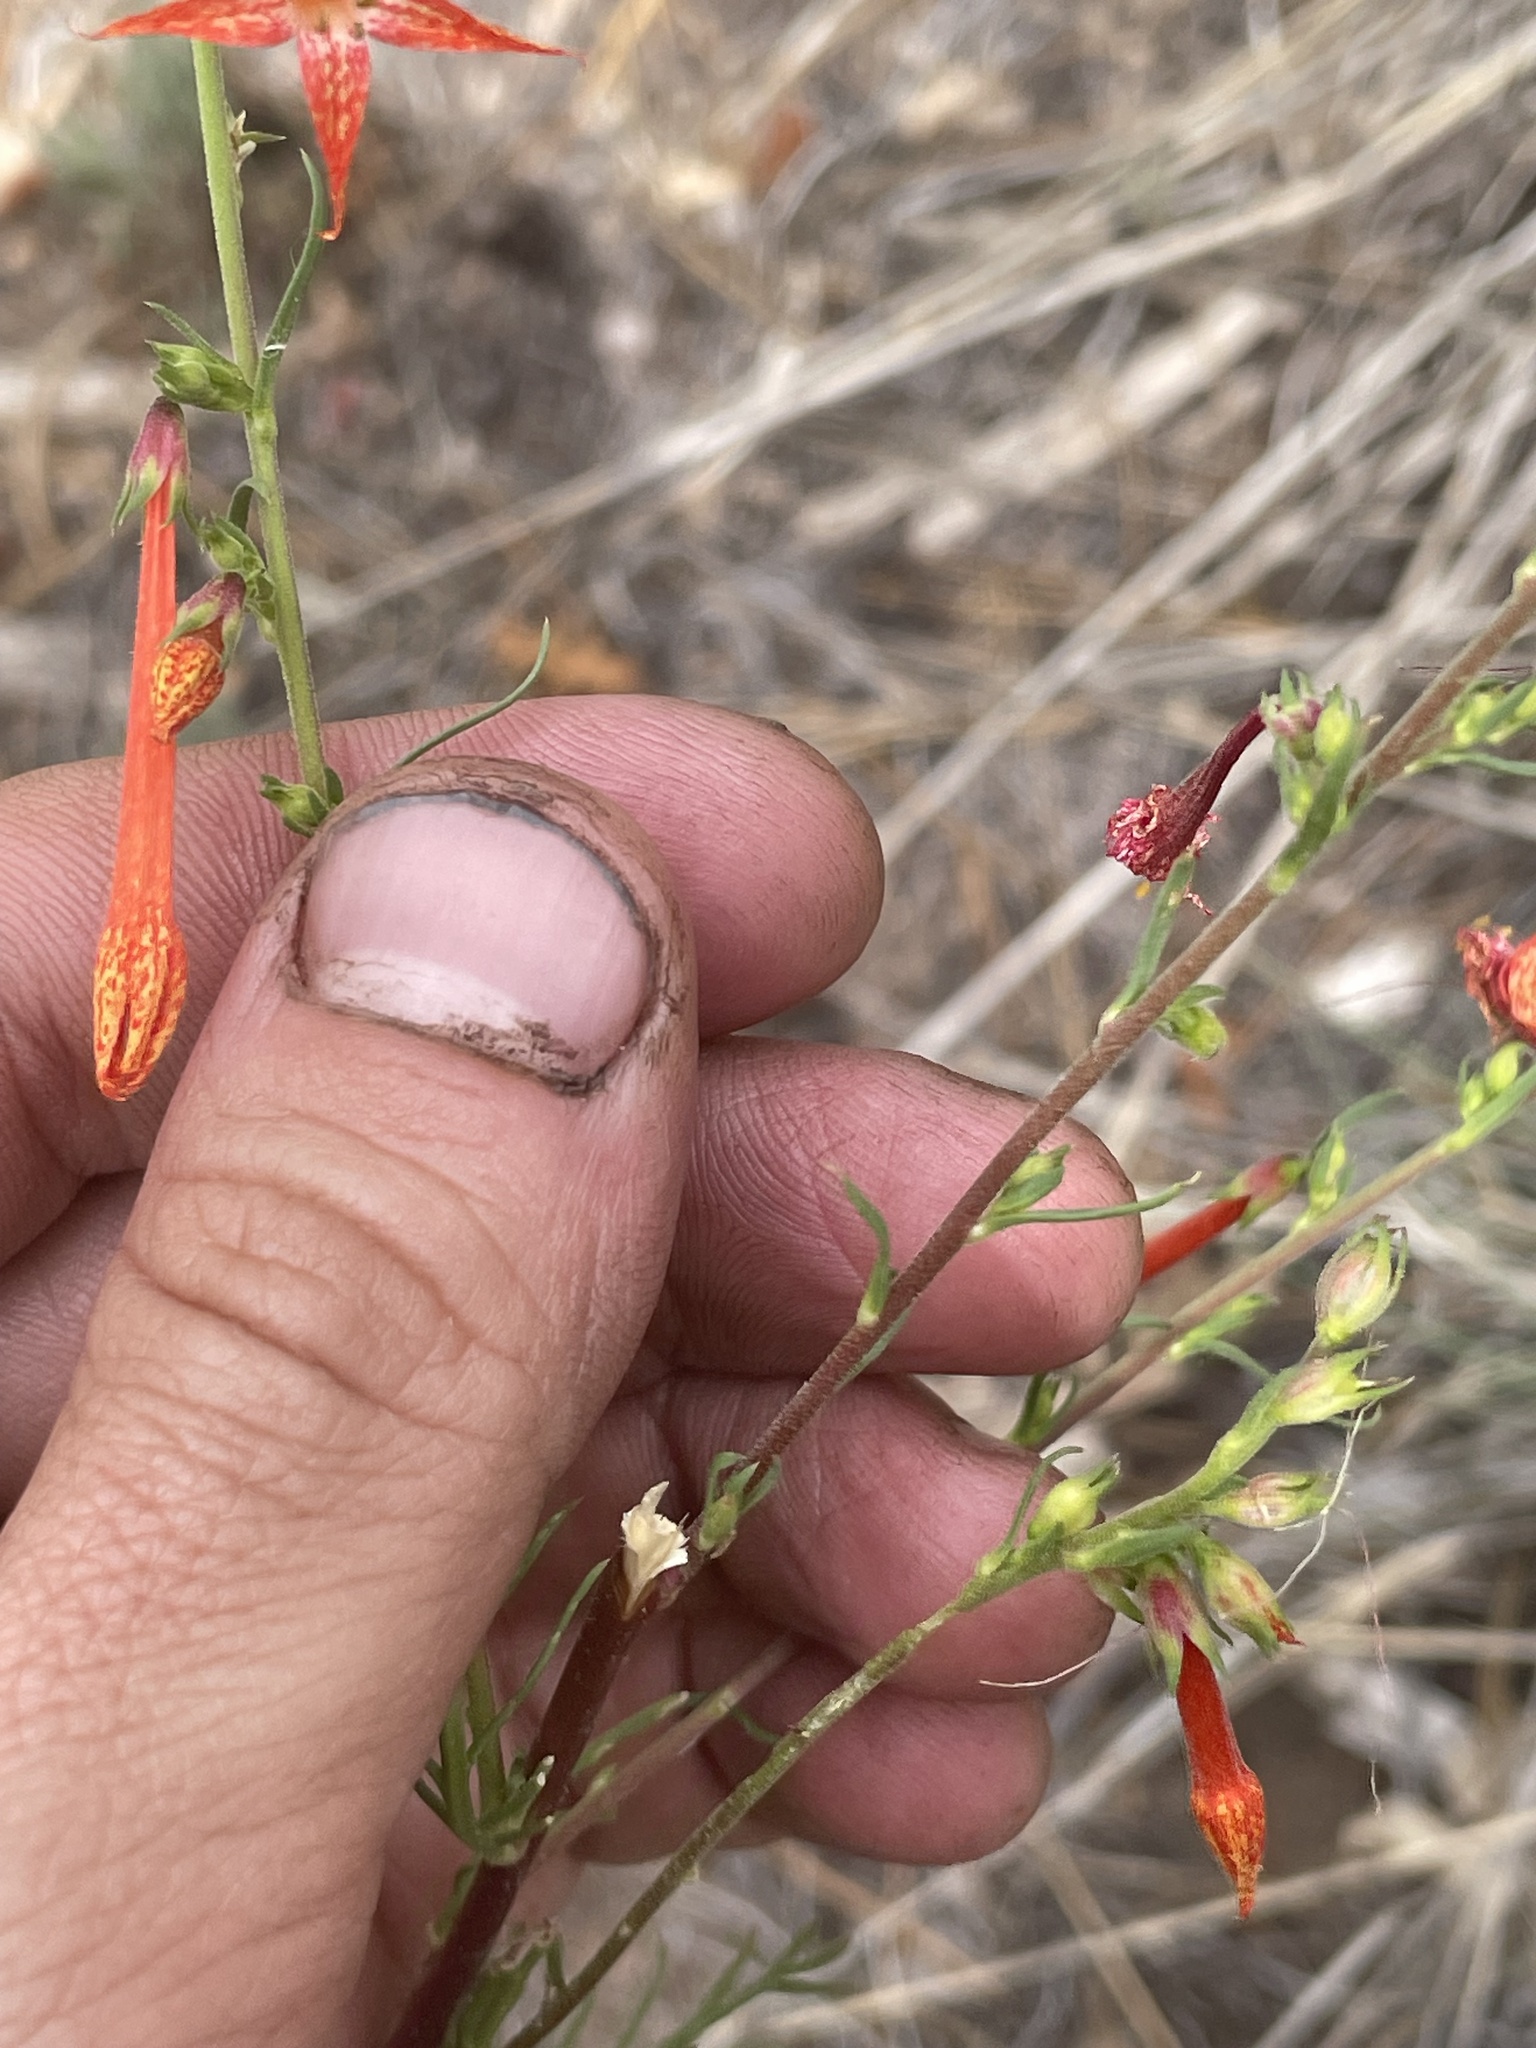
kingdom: Plantae
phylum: Tracheophyta
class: Magnoliopsida
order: Ericales
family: Polemoniaceae
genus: Ipomopsis
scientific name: Ipomopsis aggregata
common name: Scarlet gilia
